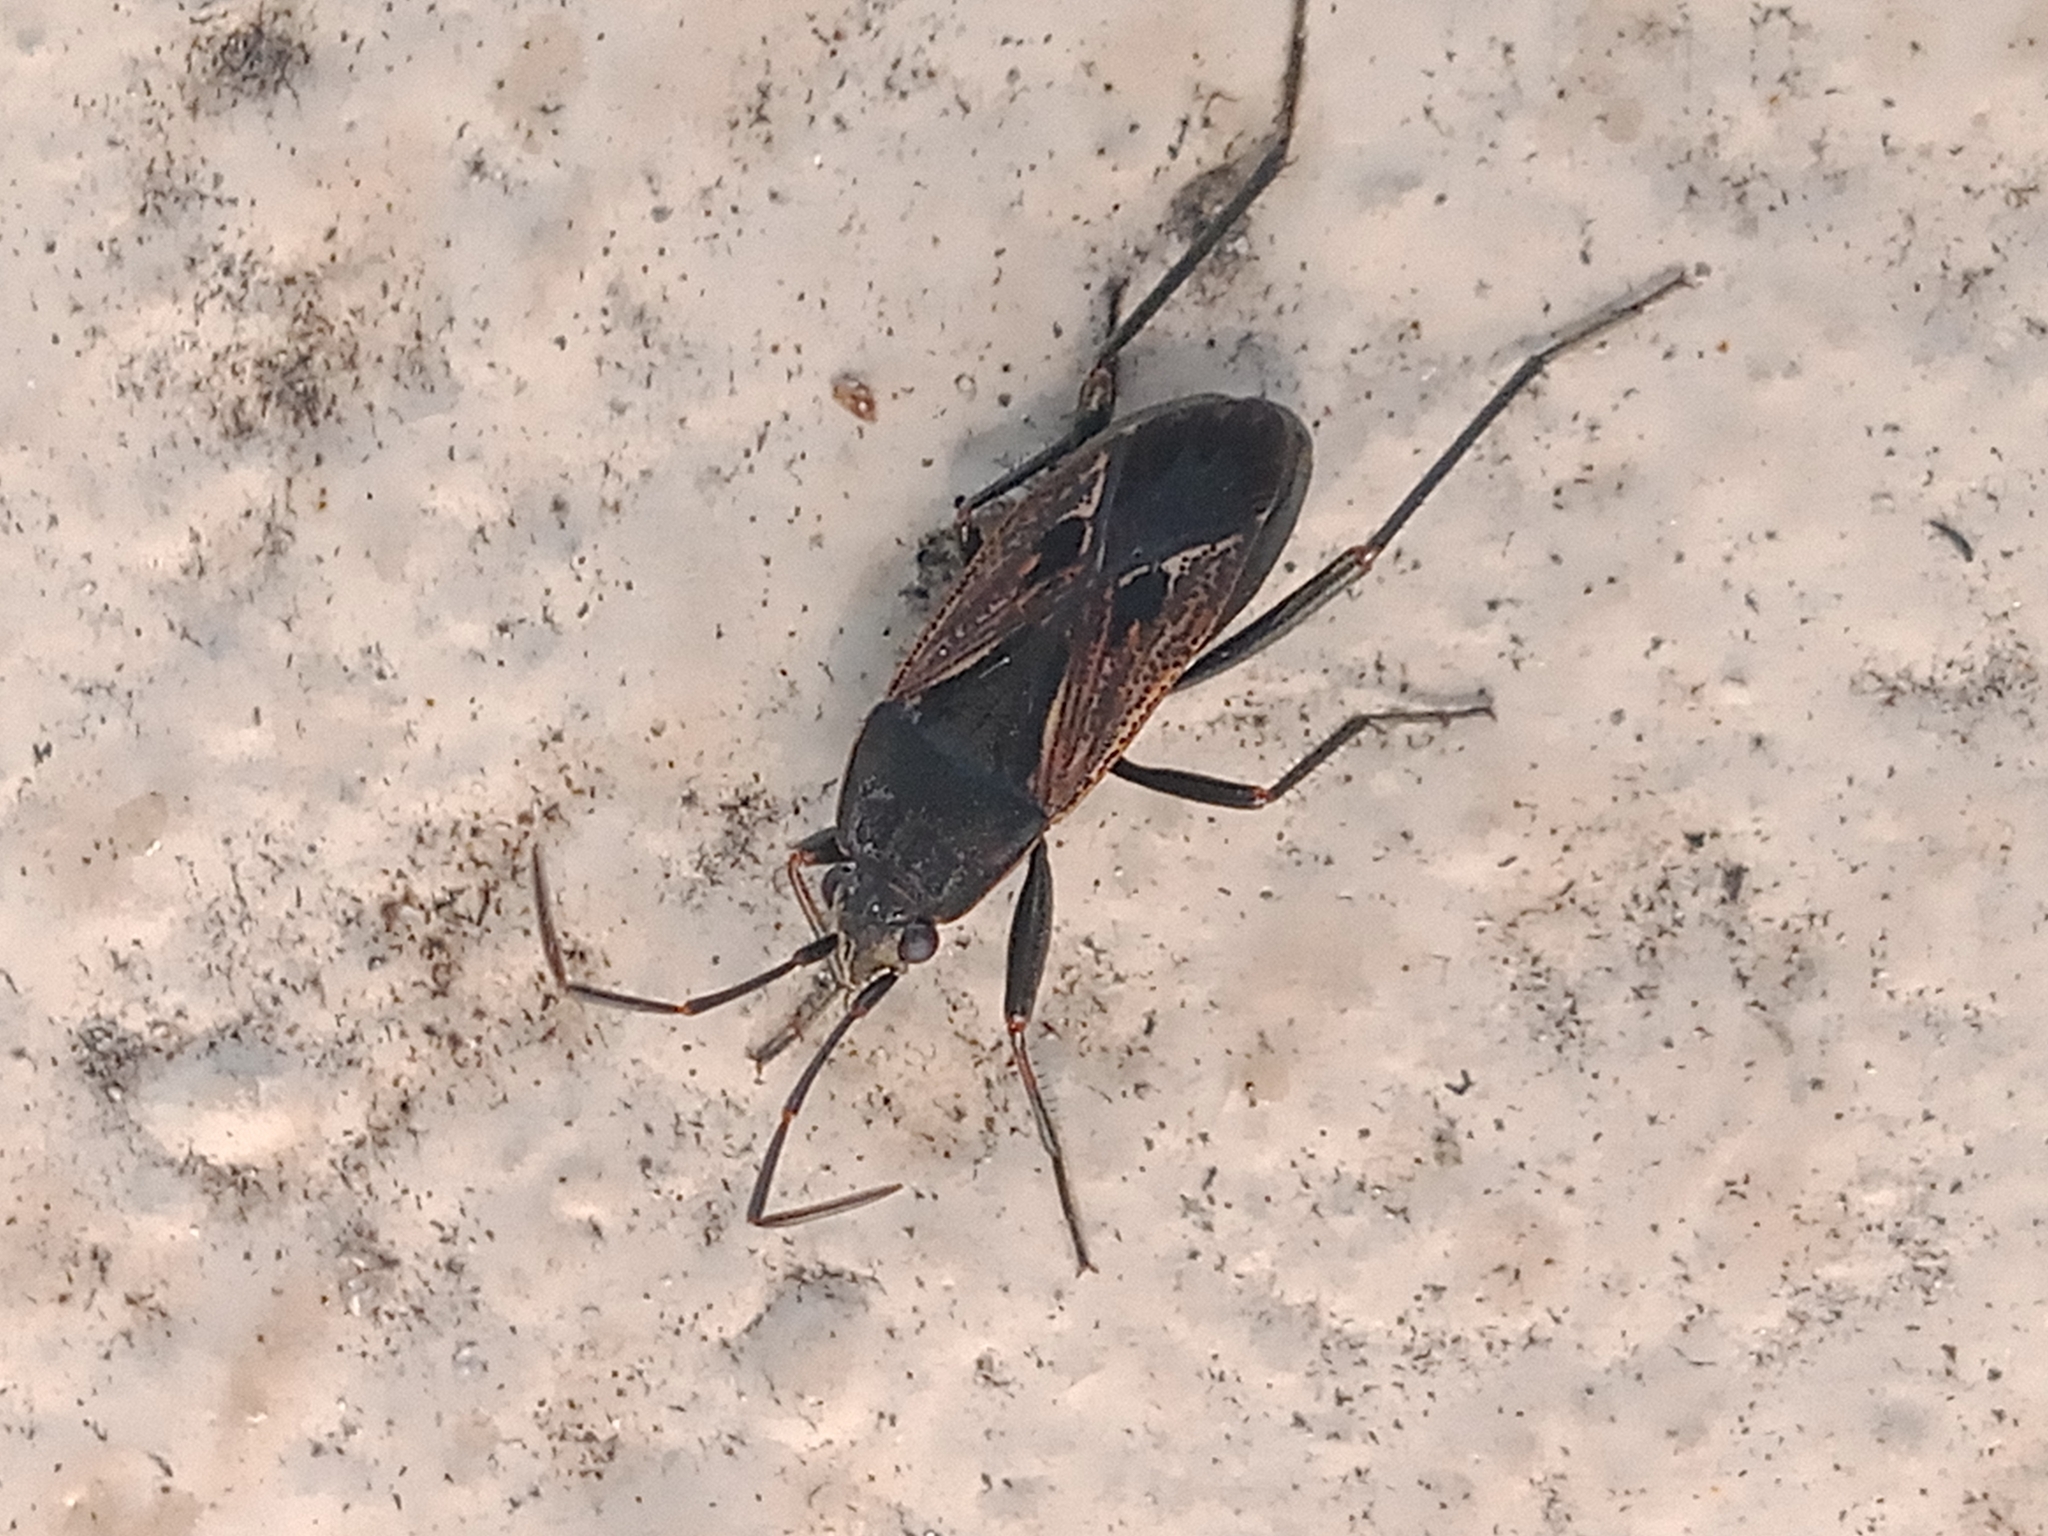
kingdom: Animalia
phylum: Arthropoda
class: Insecta
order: Hemiptera
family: Rhyparochromidae
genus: Rhyparochromus
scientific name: Rhyparochromus pini
